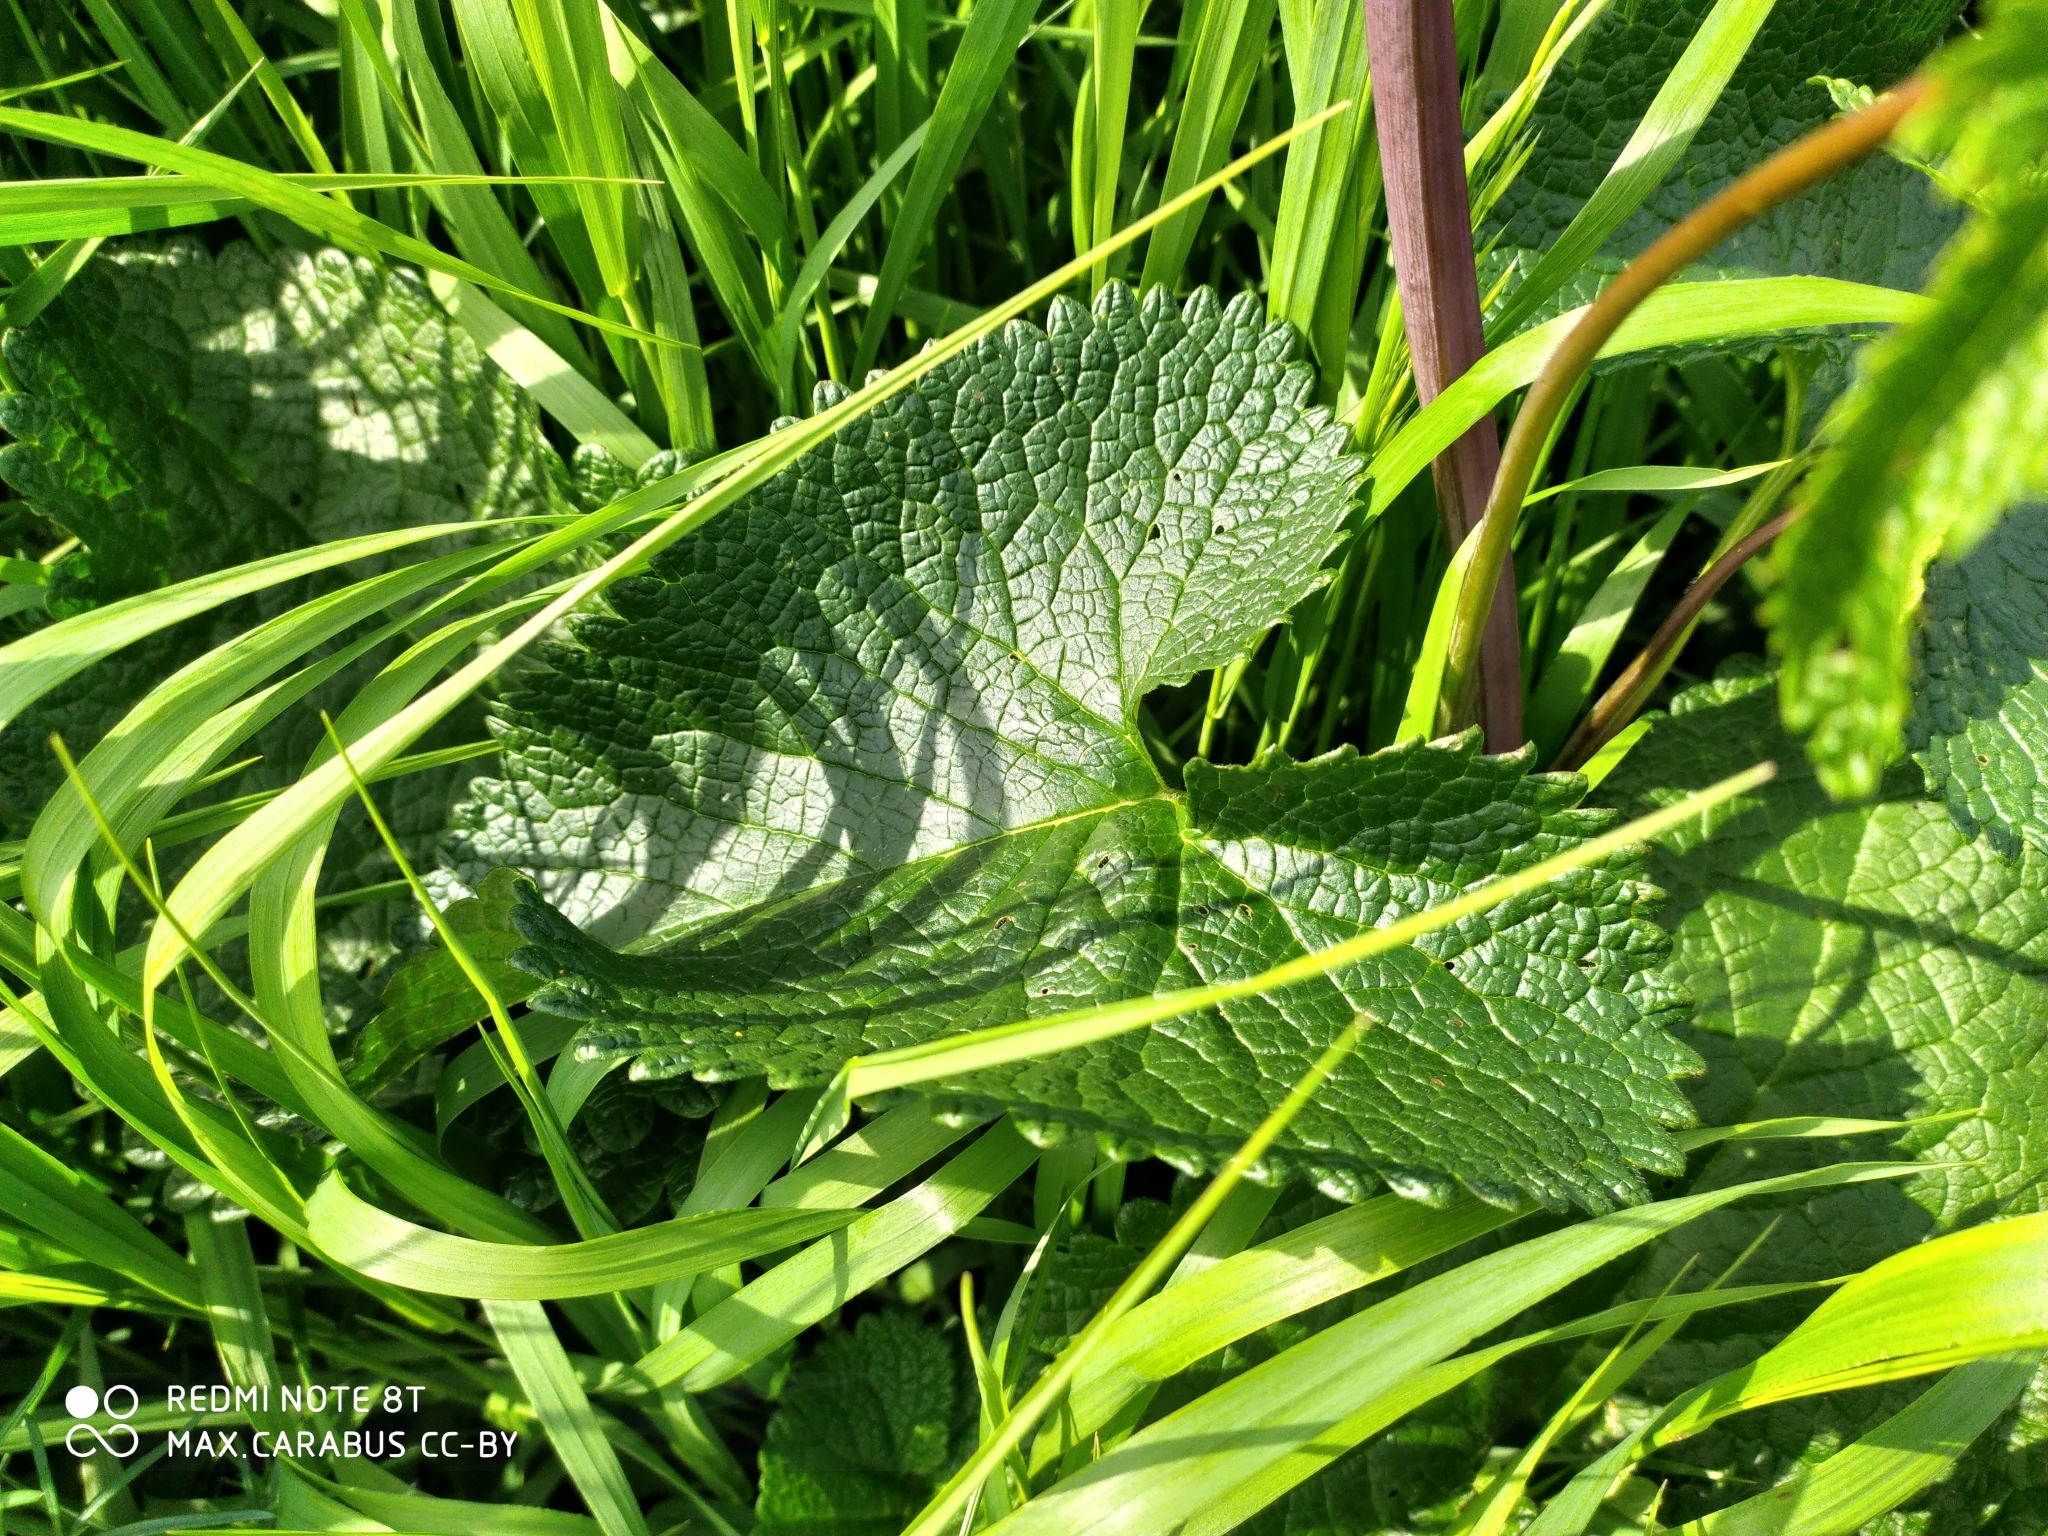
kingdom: Plantae
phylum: Tracheophyta
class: Magnoliopsida
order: Lamiales
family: Lamiaceae
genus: Phlomoides
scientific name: Phlomoides tuberosa
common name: Tuberous jerusalem sage
